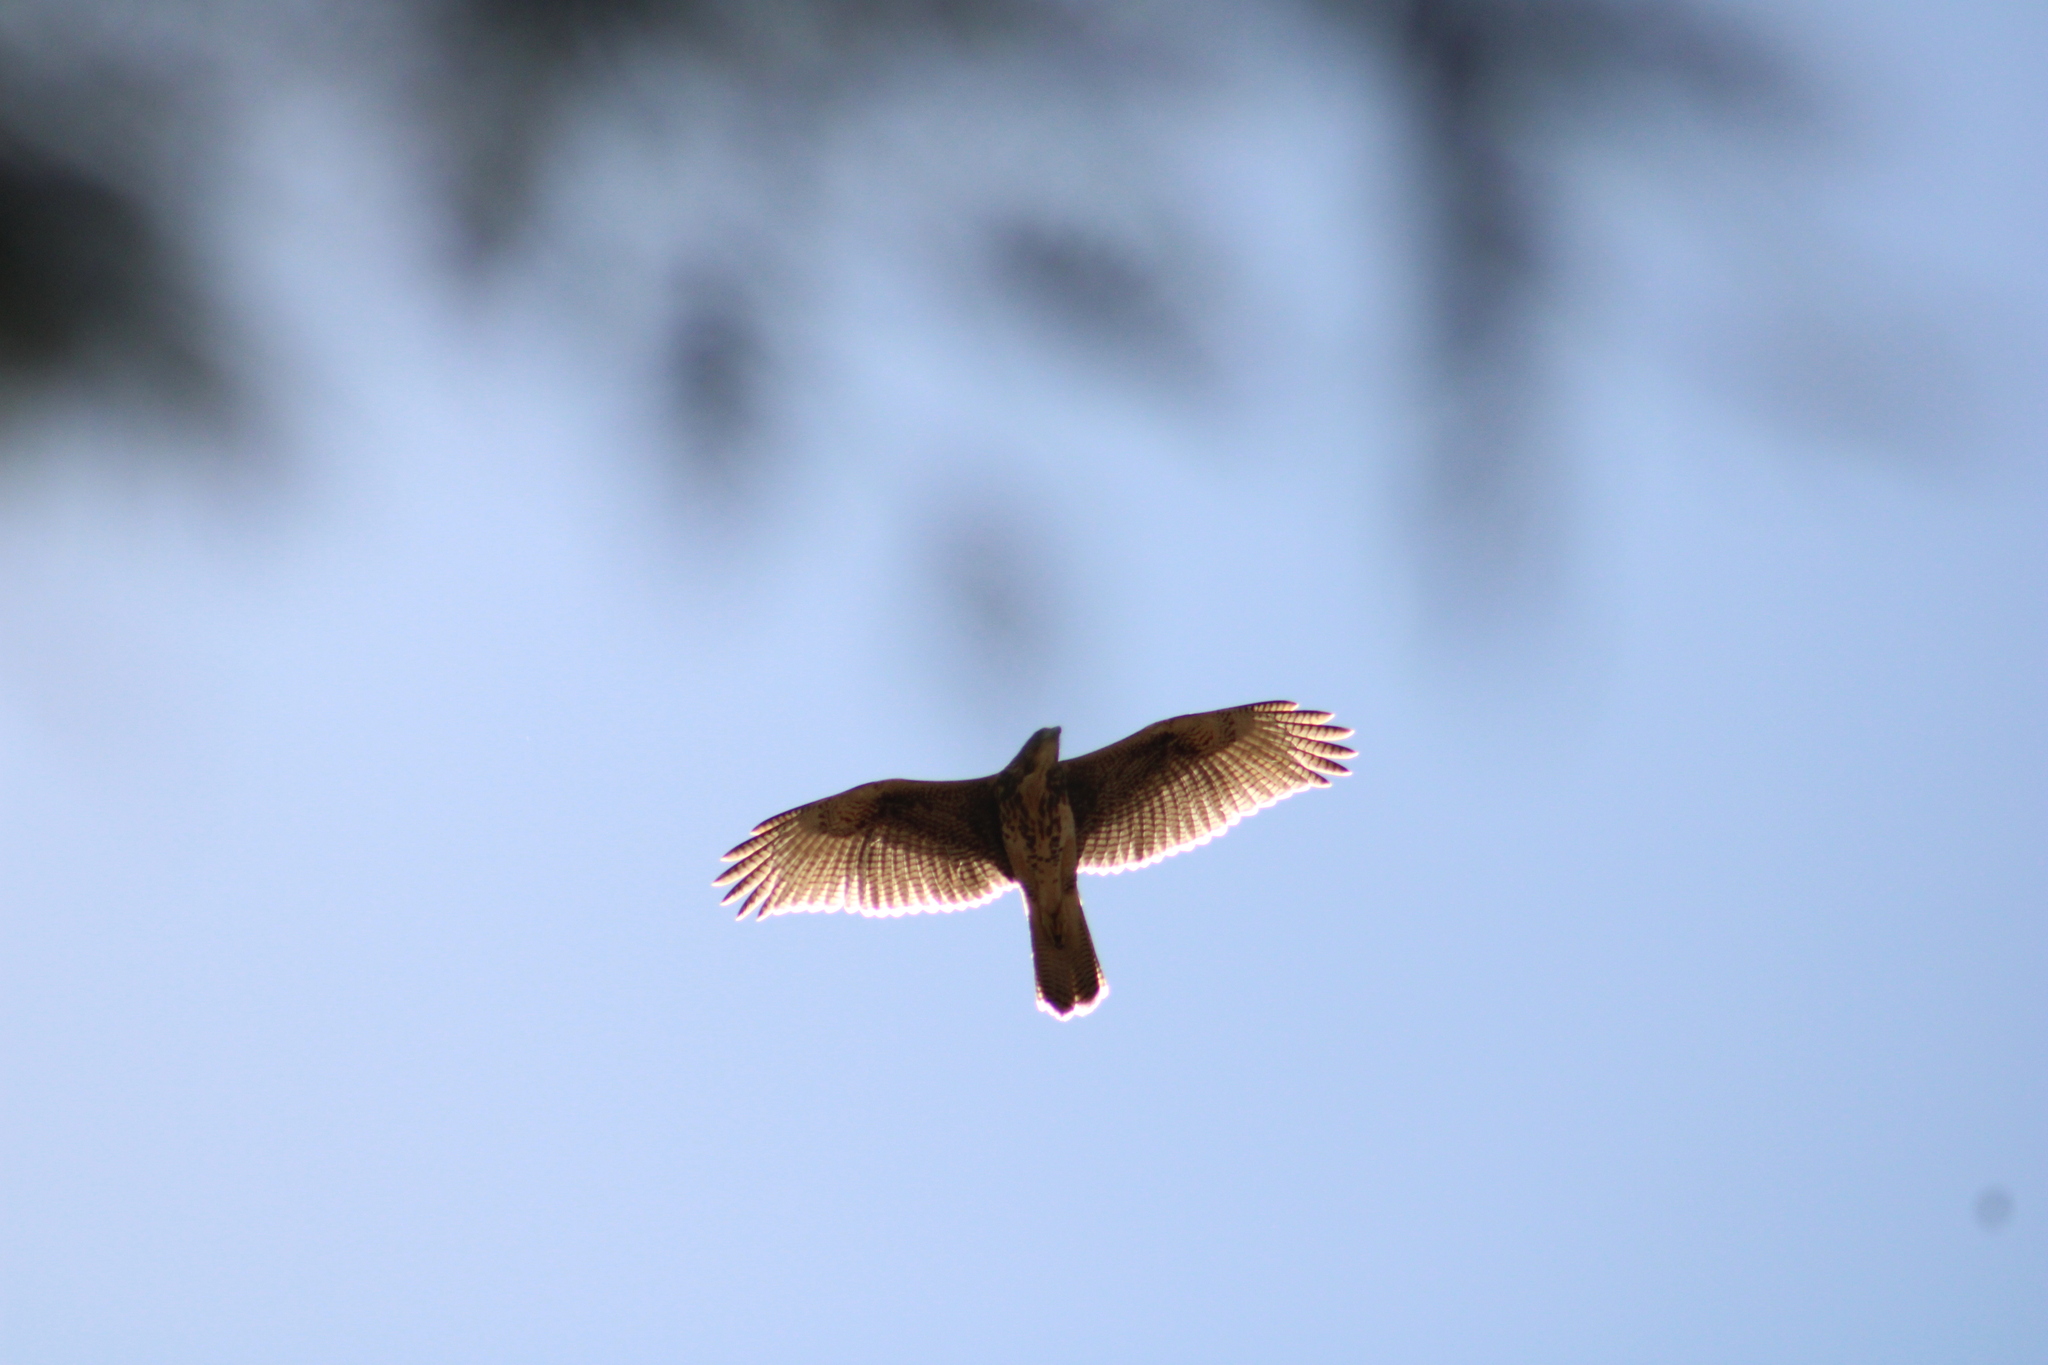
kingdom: Animalia
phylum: Chordata
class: Aves
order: Accipitriformes
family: Accipitridae
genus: Parabuteo
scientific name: Parabuteo unicinctus
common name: Harris's hawk
